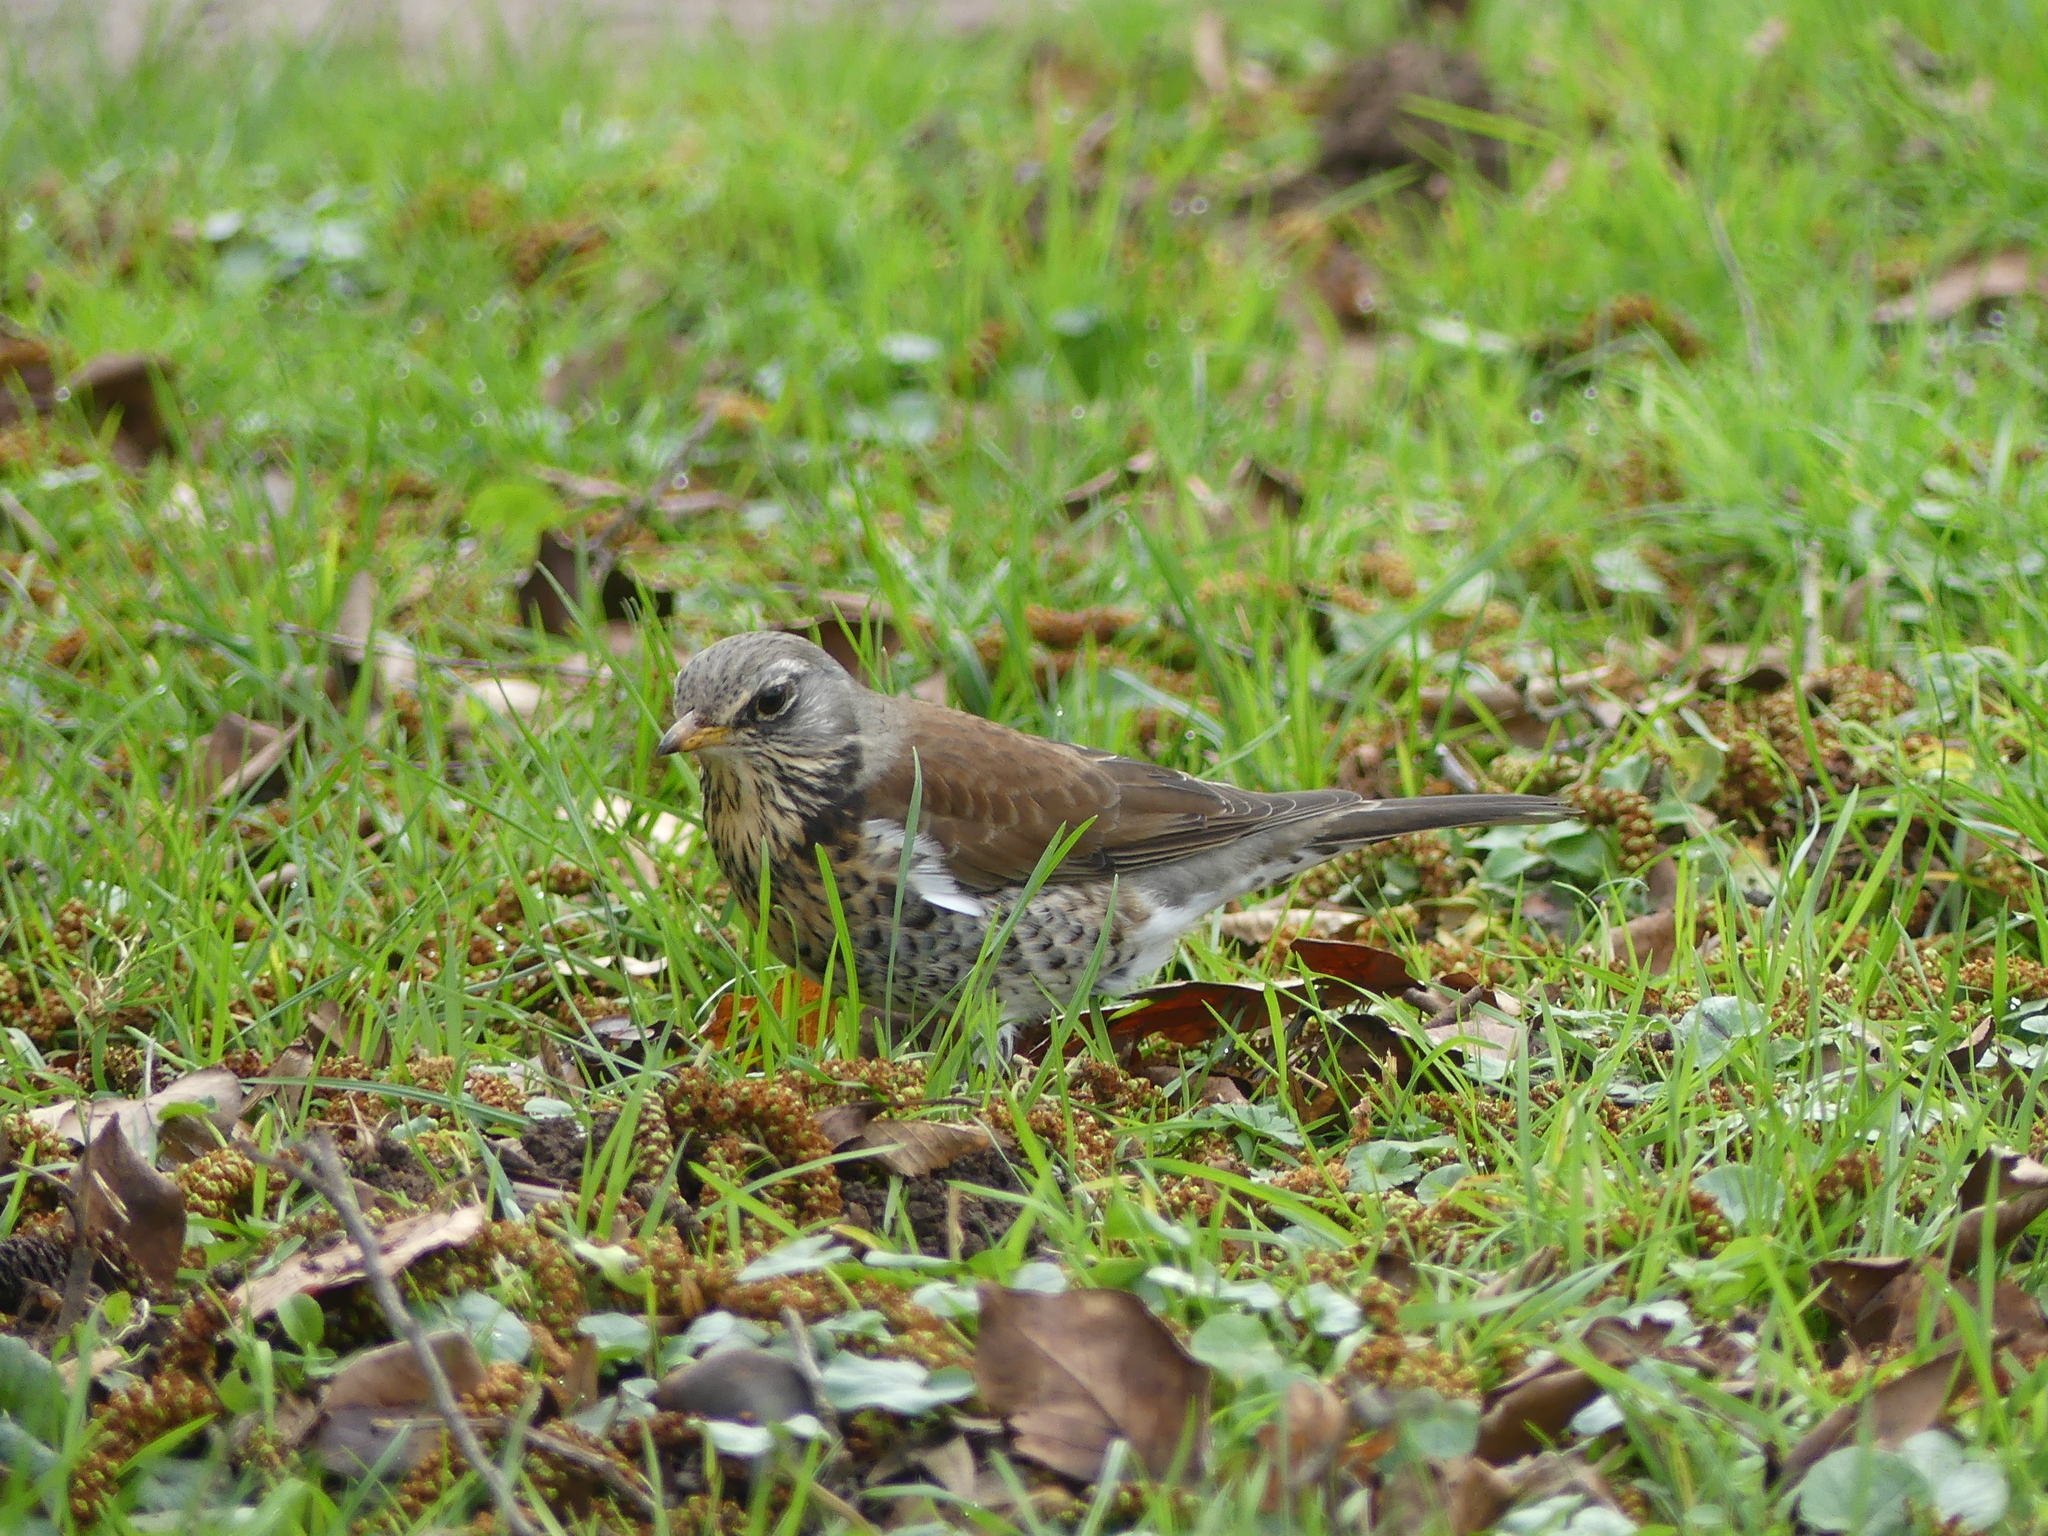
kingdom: Animalia
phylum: Chordata
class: Aves
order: Passeriformes
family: Turdidae
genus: Turdus
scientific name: Turdus pilaris
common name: Fieldfare
